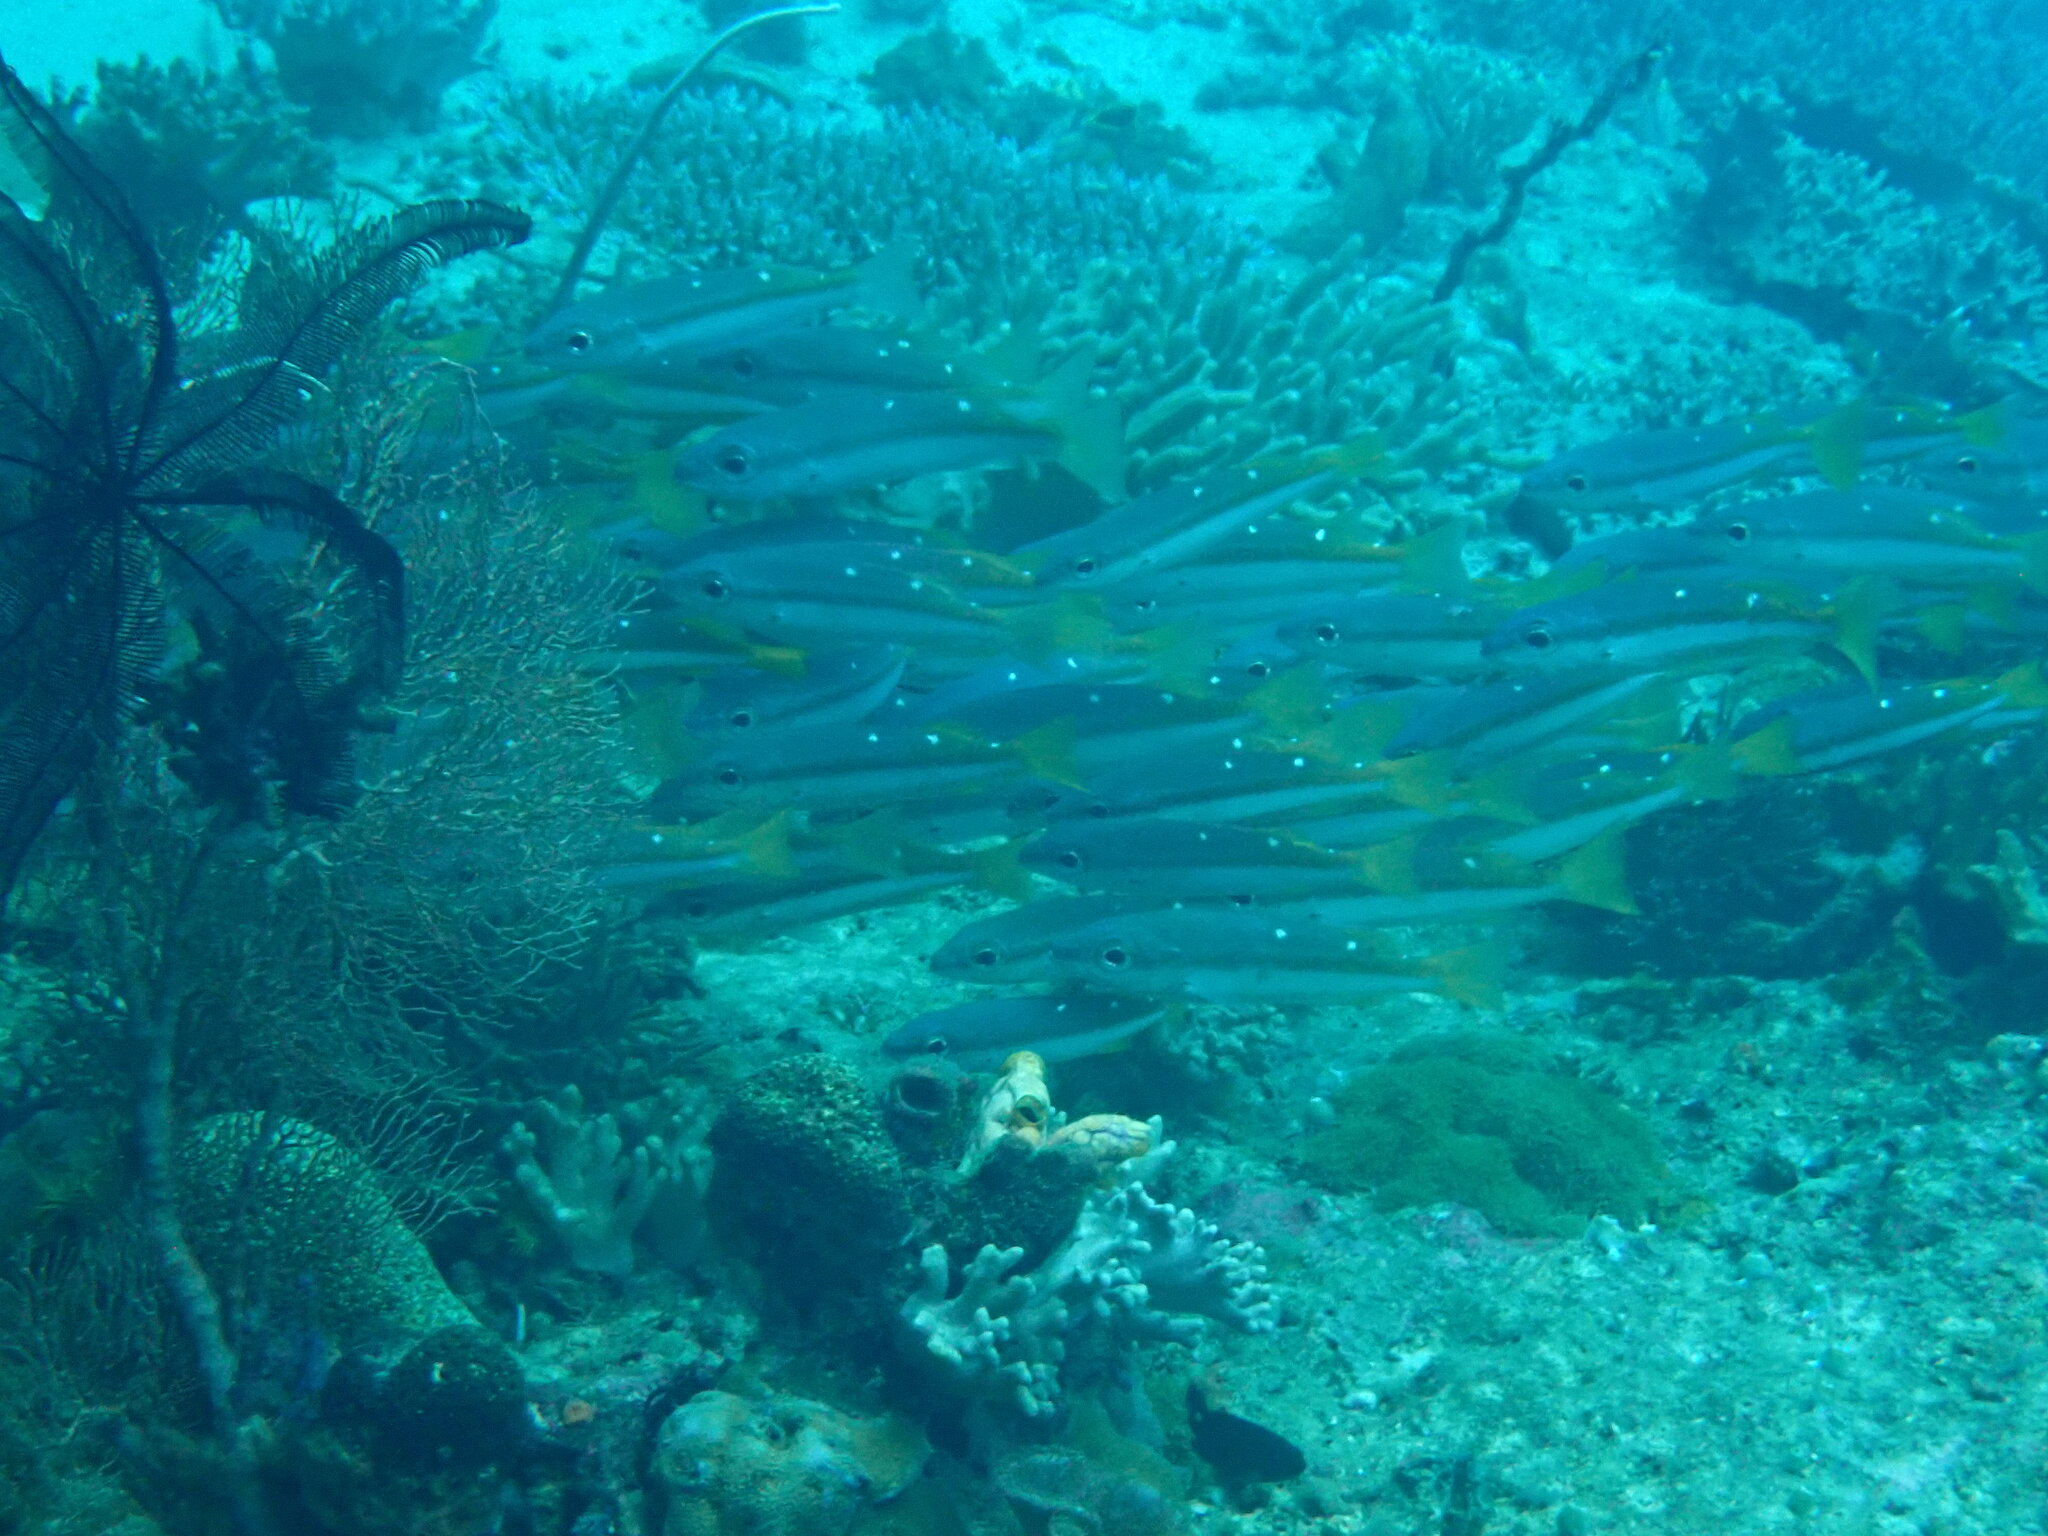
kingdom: Animalia
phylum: Chordata
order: Perciformes
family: Lutjanidae
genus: Lutjanus
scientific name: Lutjanus biguttatus
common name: Two-spot snapper
